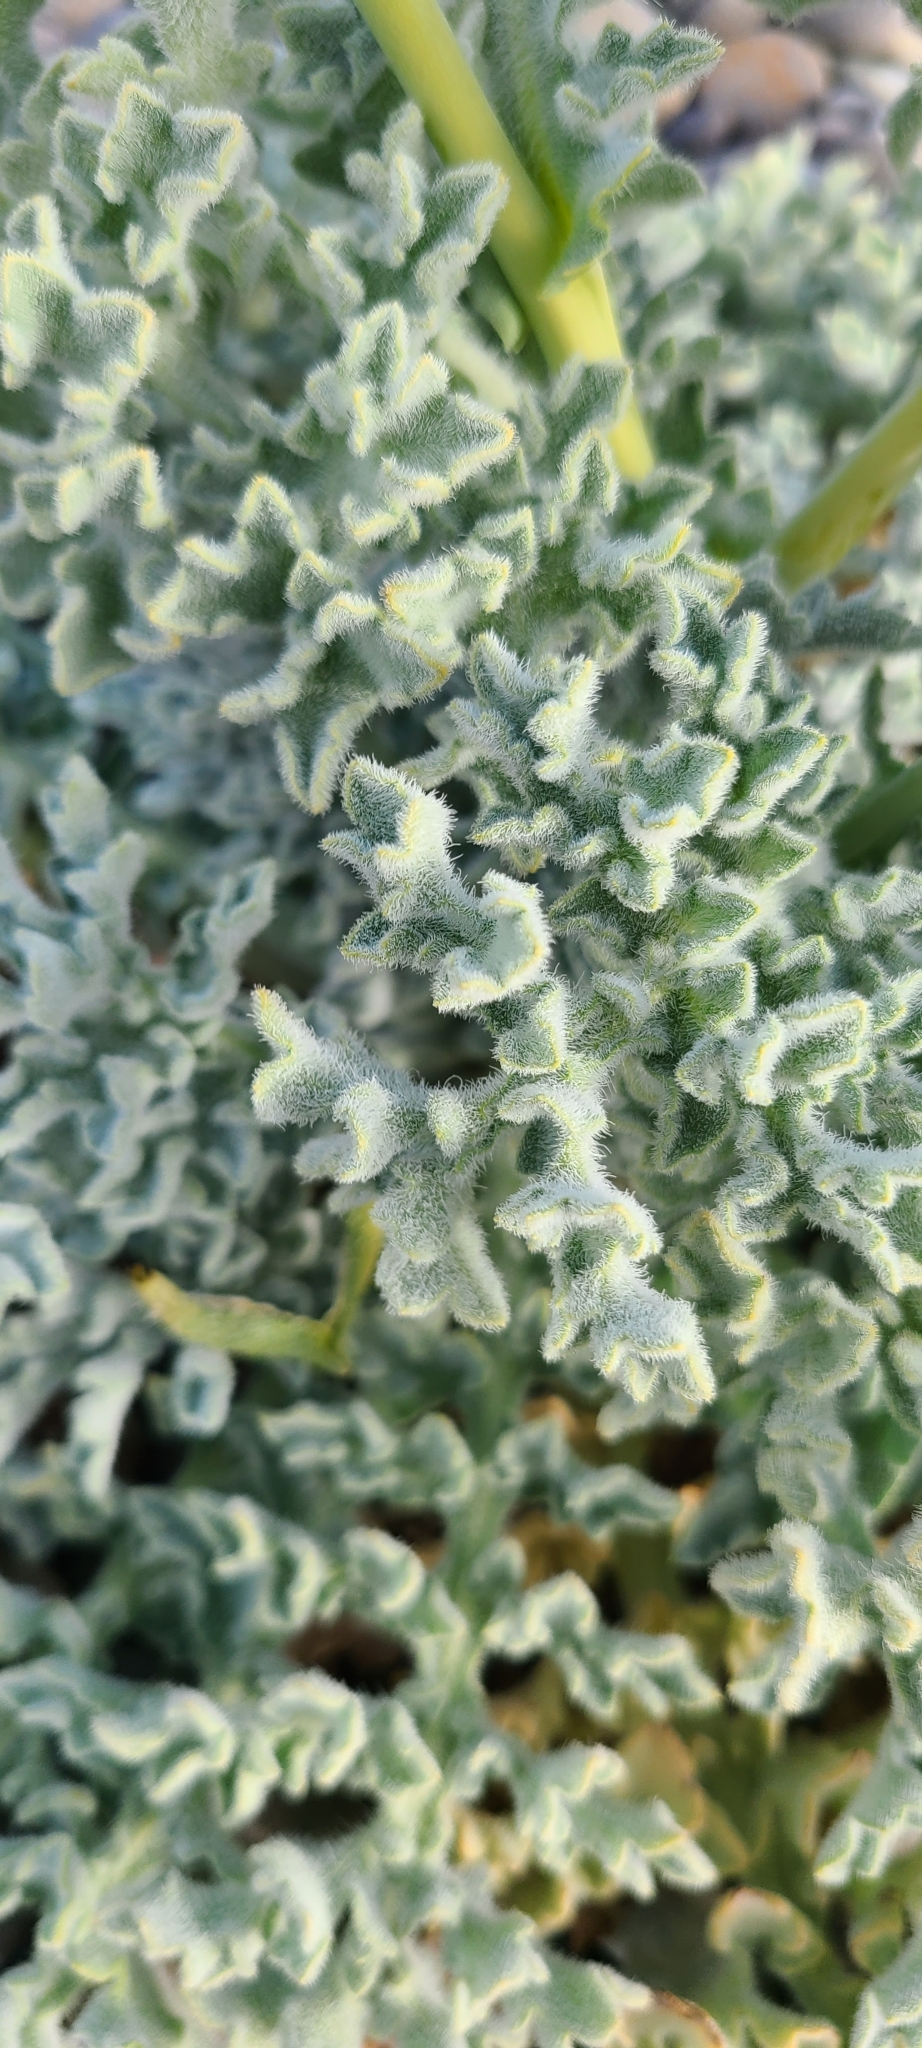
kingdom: Plantae
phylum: Tracheophyta
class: Magnoliopsida
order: Ranunculales
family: Papaveraceae
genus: Glaucium
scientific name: Glaucium flavum
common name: Yellow horned-poppy
